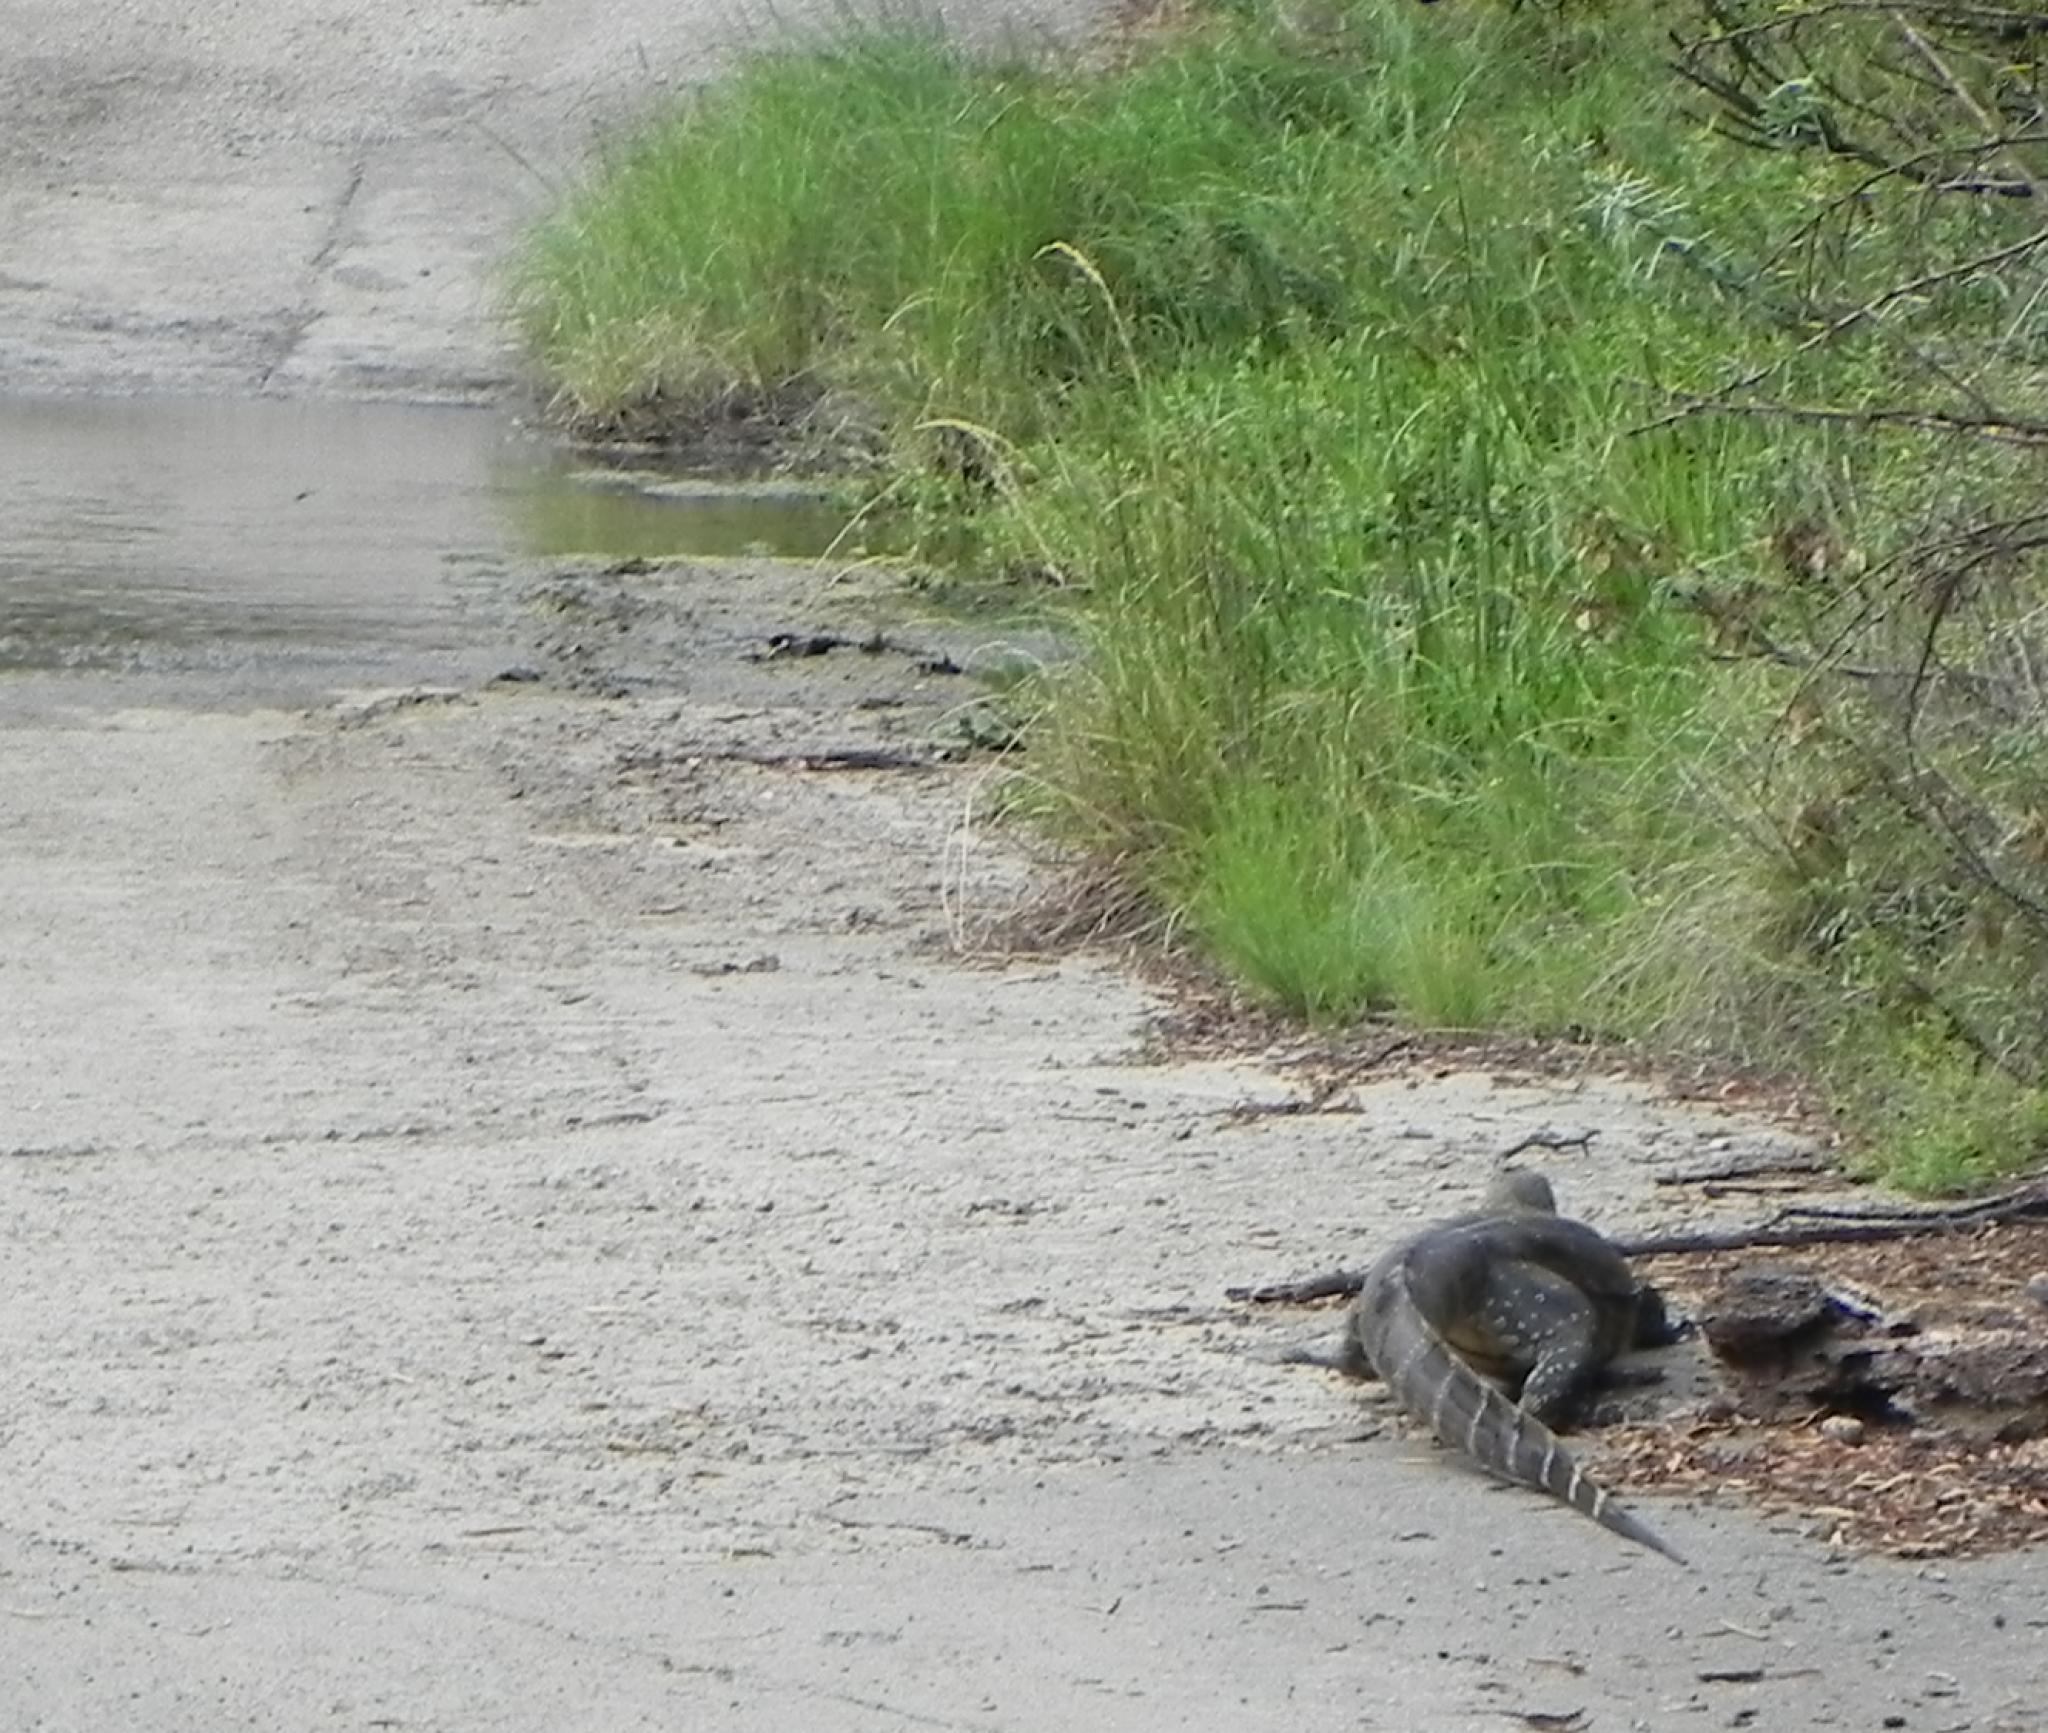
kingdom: Animalia
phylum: Chordata
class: Squamata
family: Varanidae
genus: Varanus
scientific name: Varanus niloticus
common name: Nile monitor
